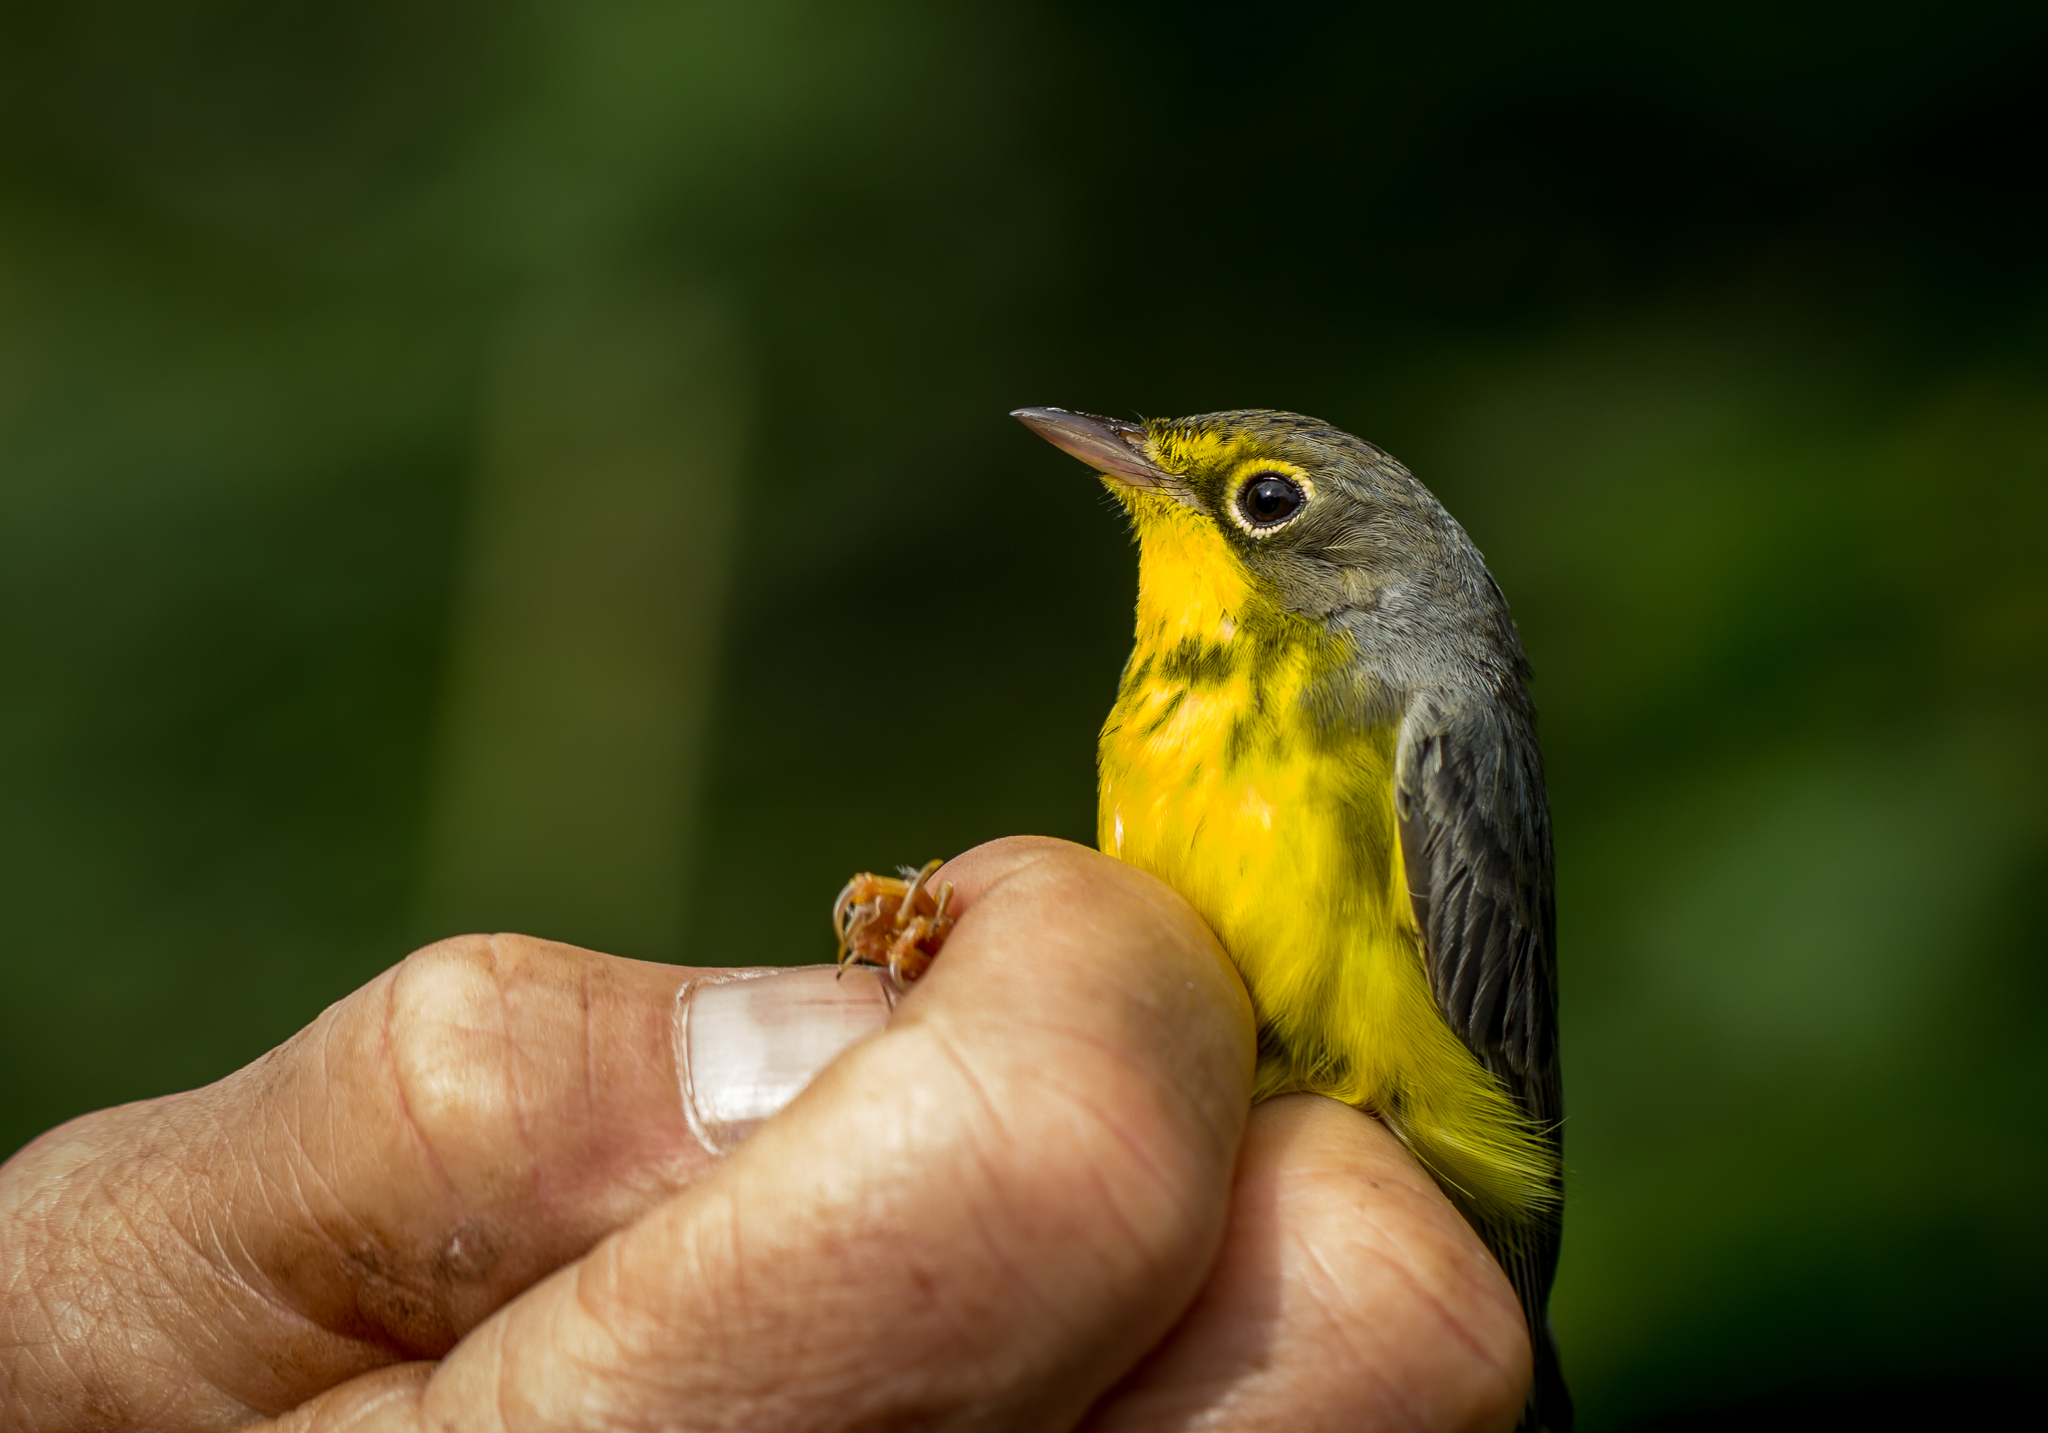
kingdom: Animalia
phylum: Chordata
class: Aves
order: Passeriformes
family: Parulidae
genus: Cardellina
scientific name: Cardellina canadensis
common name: Canada warbler
